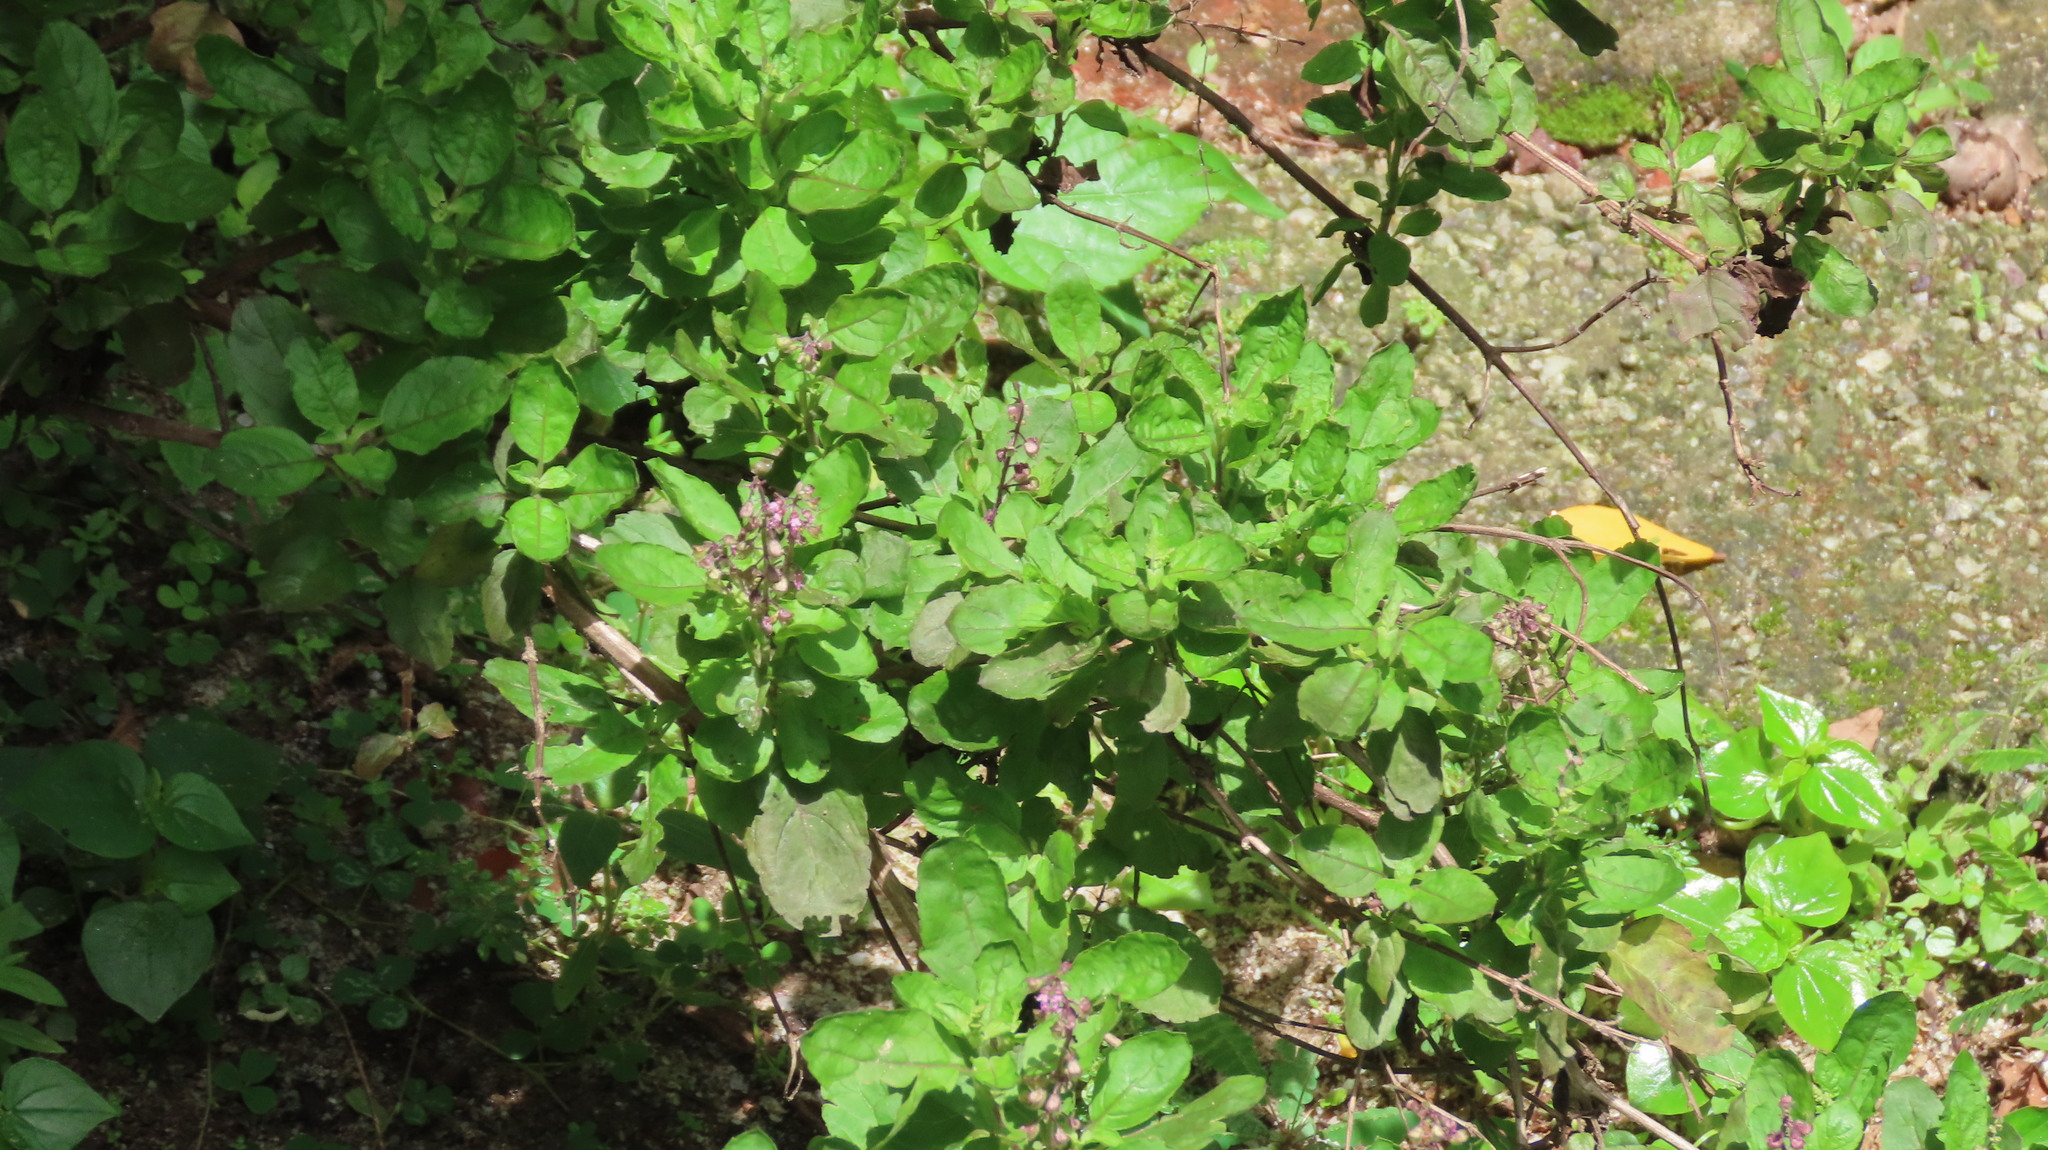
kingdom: Plantae
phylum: Tracheophyta
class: Magnoliopsida
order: Lamiales
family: Lamiaceae
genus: Ocimum
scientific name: Ocimum tenuiflorum
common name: Sacred basil
